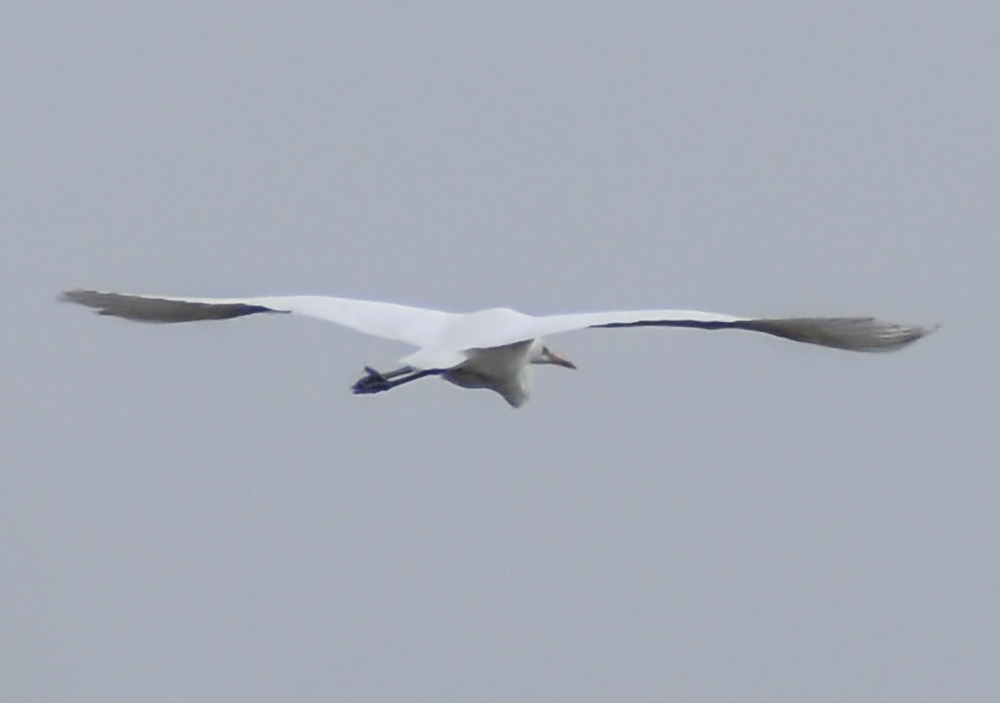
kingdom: Animalia
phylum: Chordata
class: Aves
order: Pelecaniformes
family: Ardeidae
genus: Ardea
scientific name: Ardea alba
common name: Great egret
